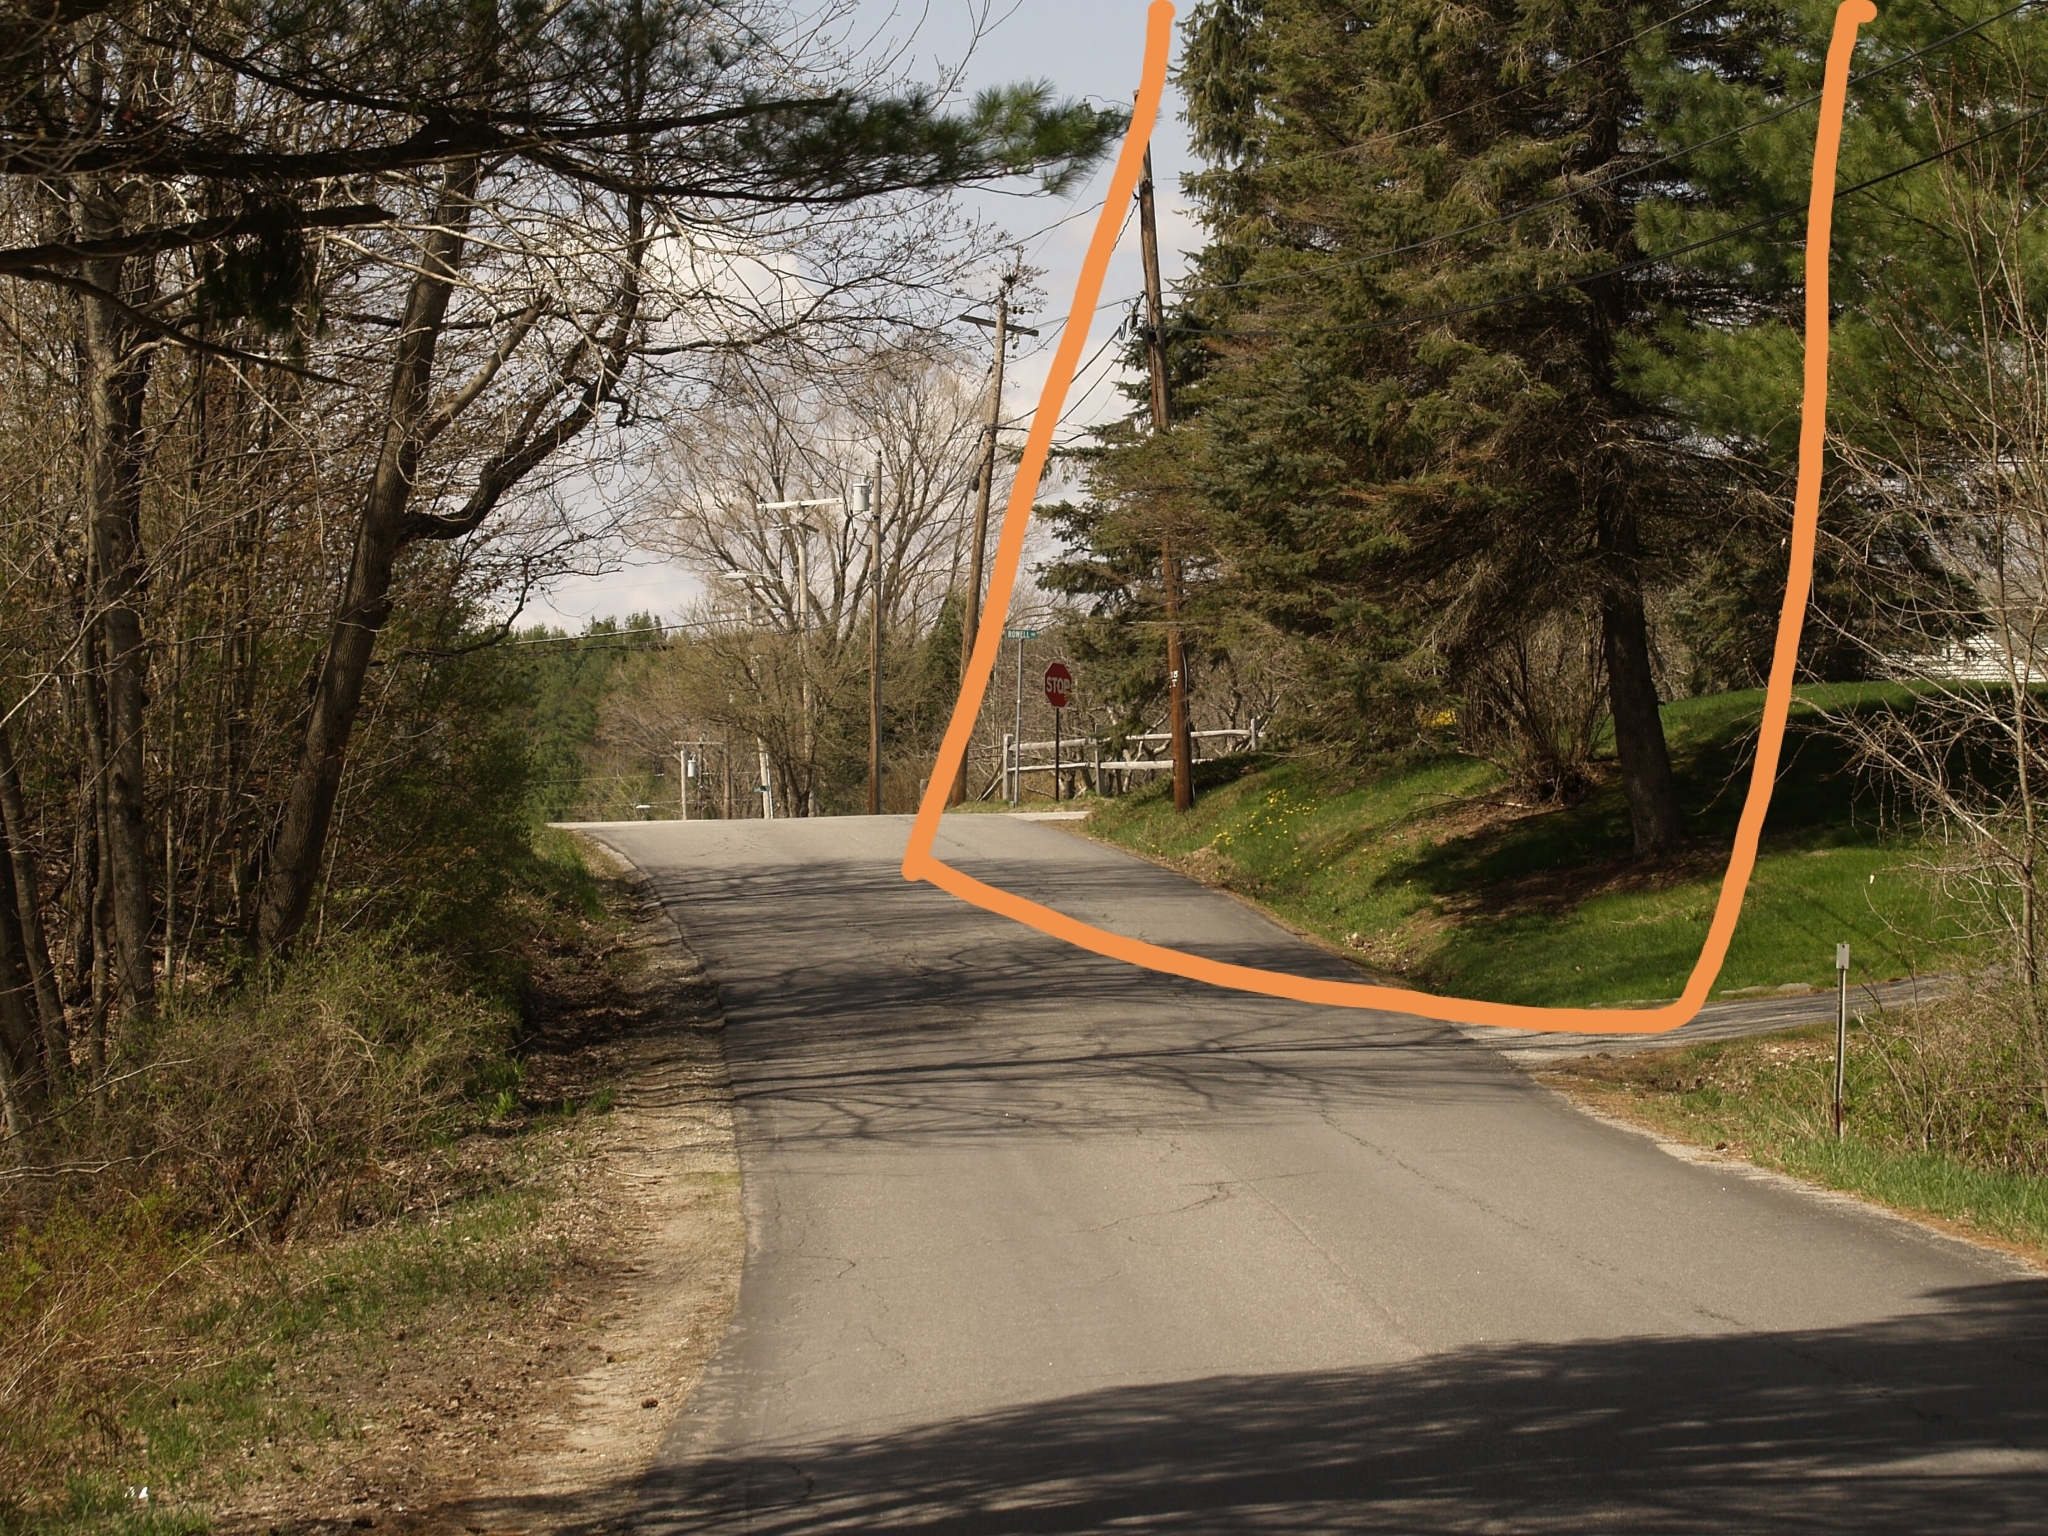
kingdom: Plantae
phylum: Tracheophyta
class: Pinopsida
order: Pinales
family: Pinaceae
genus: Tsuga
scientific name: Tsuga canadensis
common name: Eastern hemlock
